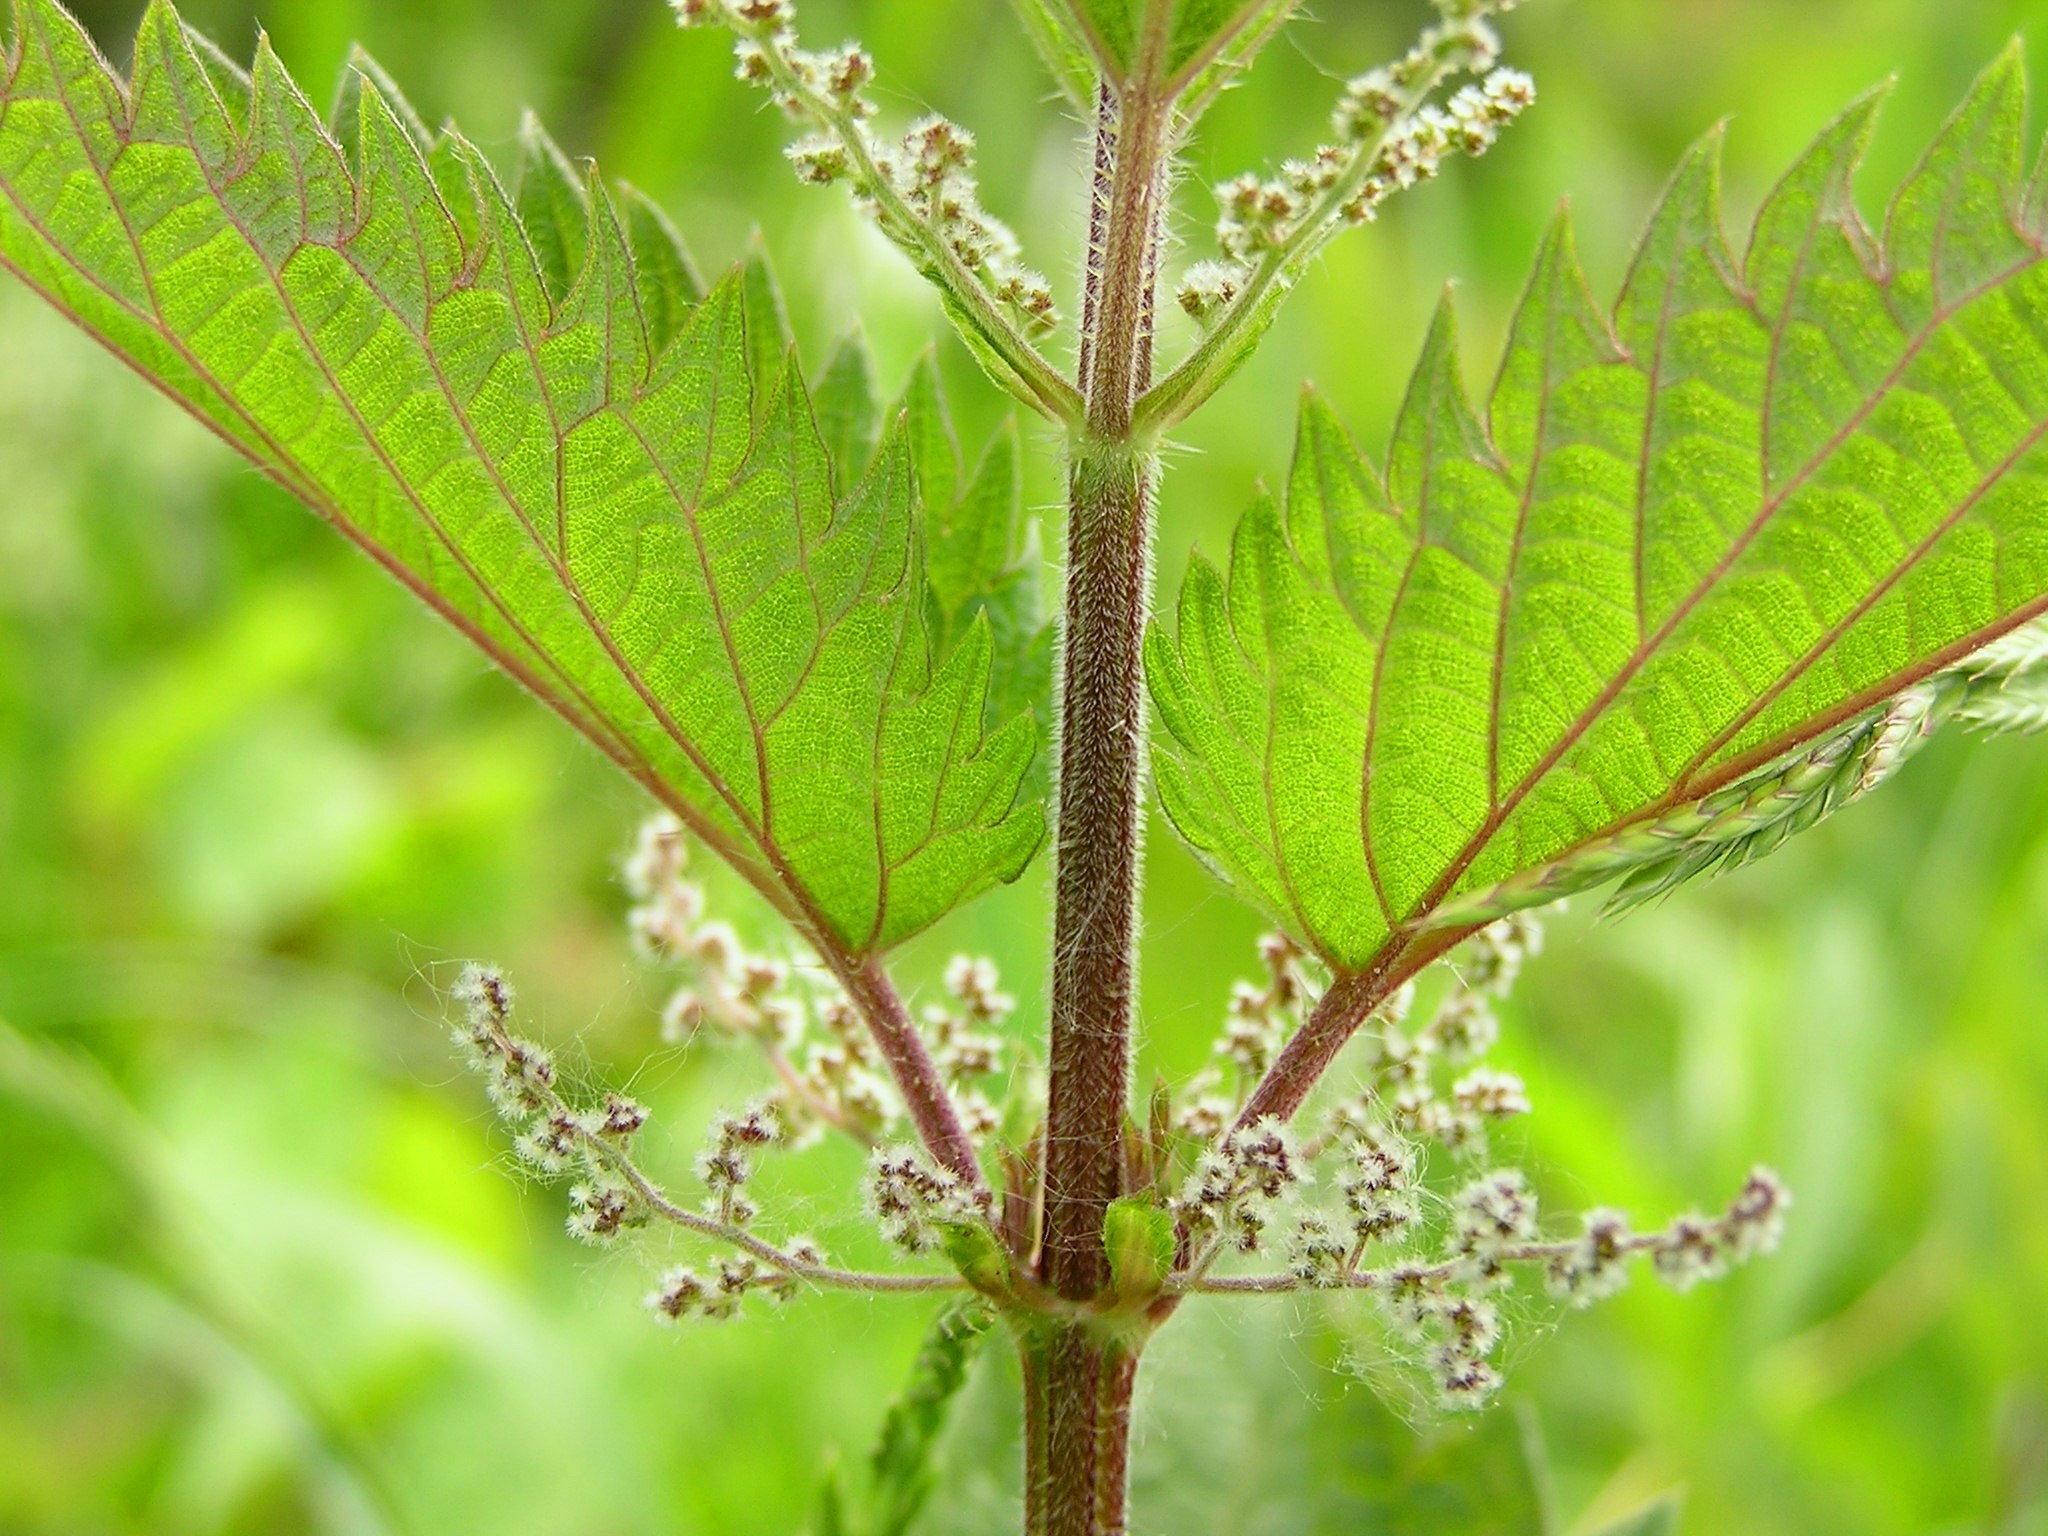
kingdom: Plantae
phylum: Tracheophyta
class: Magnoliopsida
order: Rosales
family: Urticaceae
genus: Urtica
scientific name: Urtica dioica
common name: Common nettle
